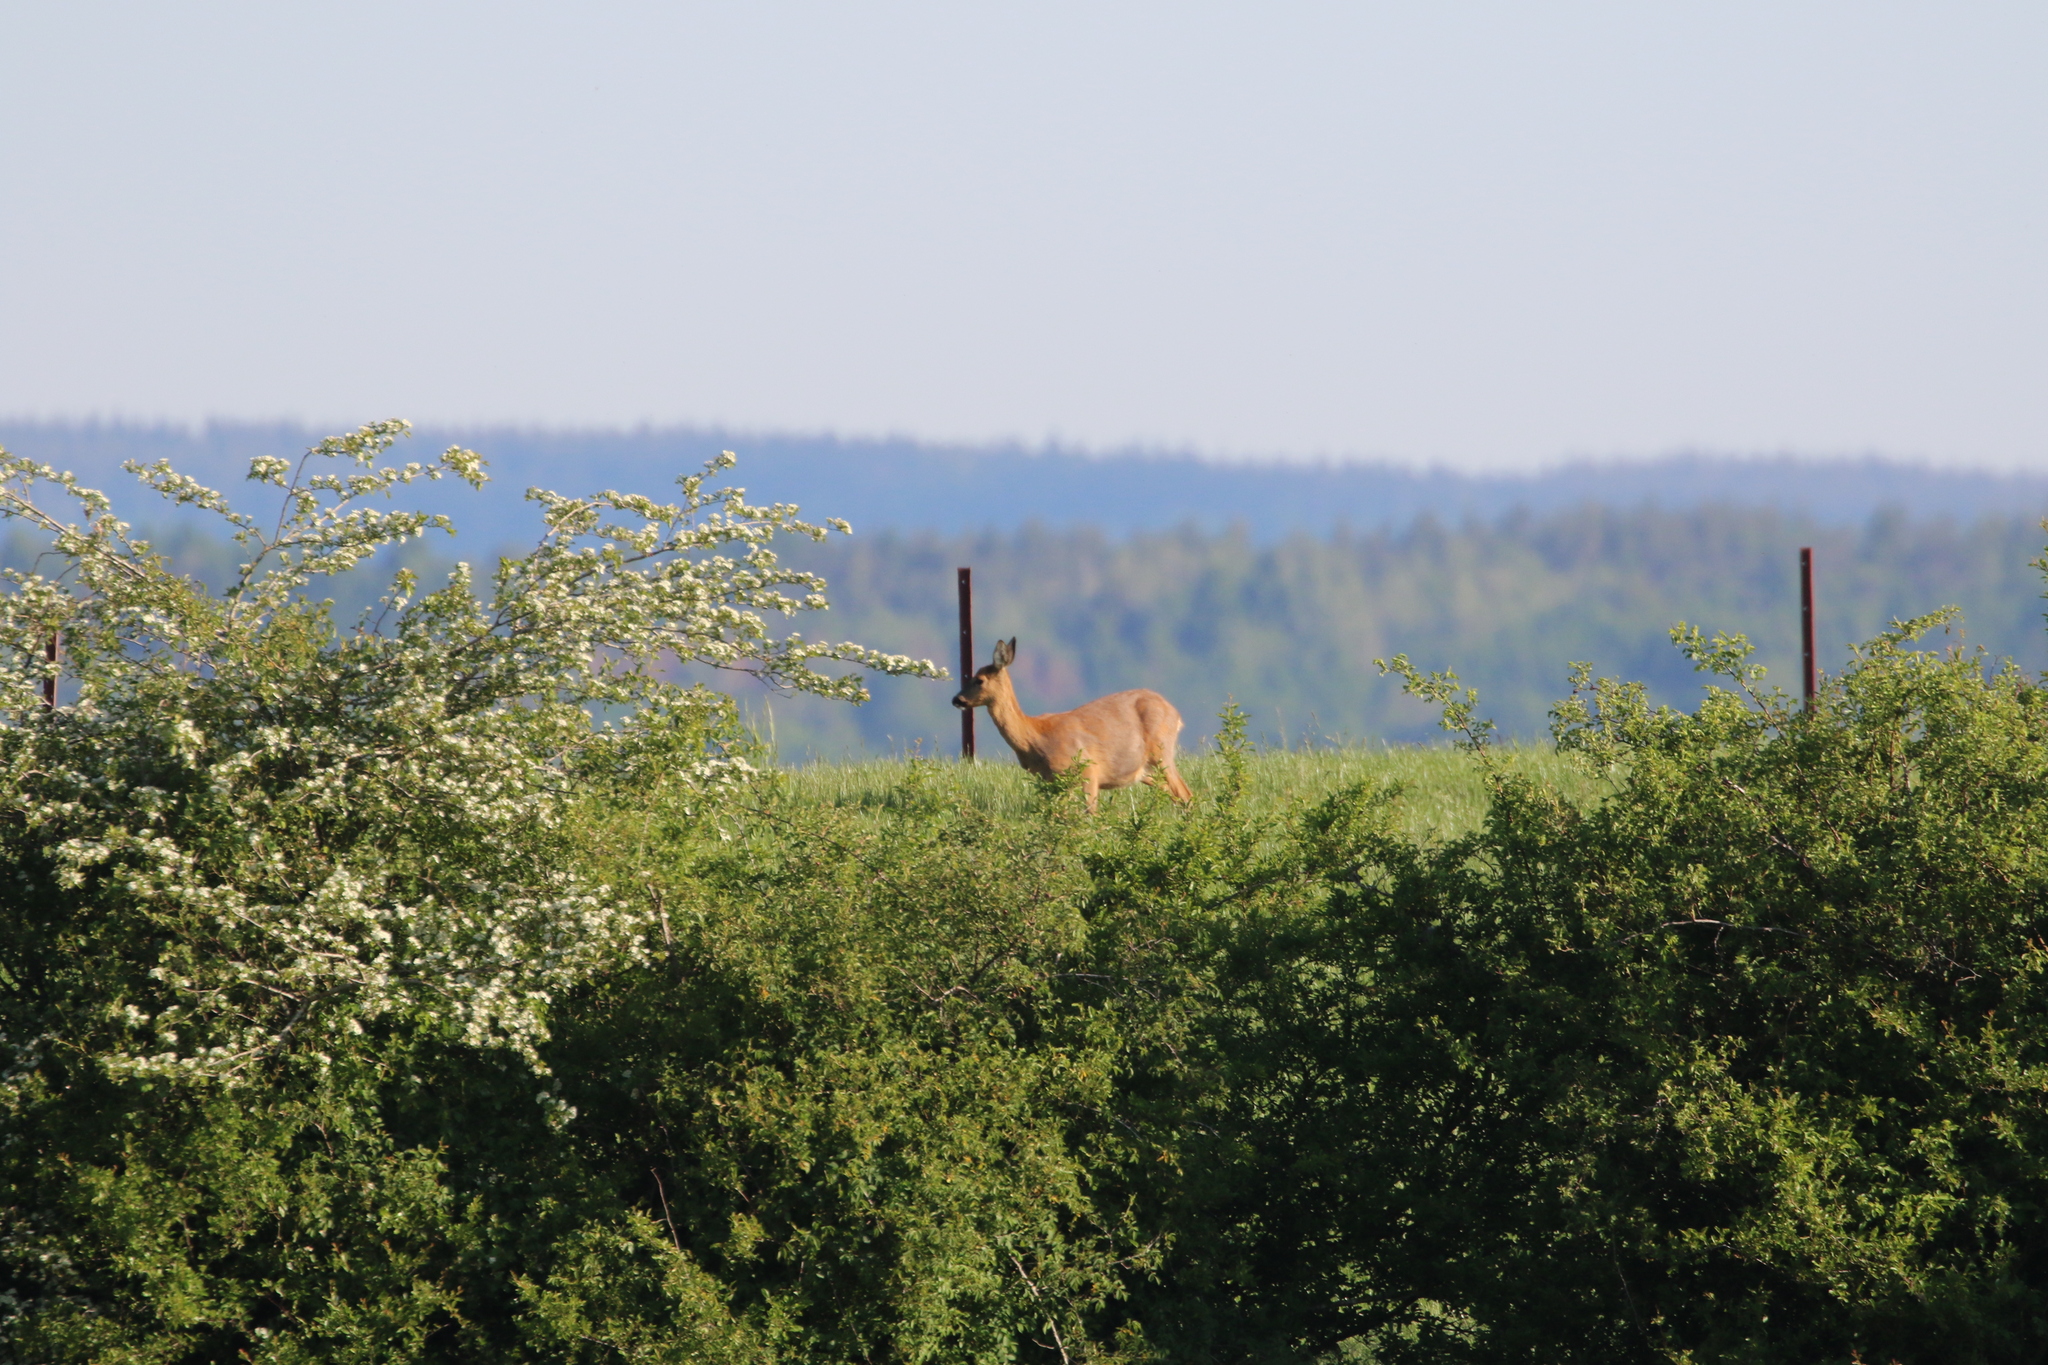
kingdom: Animalia
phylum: Chordata
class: Mammalia
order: Artiodactyla
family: Cervidae
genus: Capreolus
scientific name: Capreolus capreolus
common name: Western roe deer
